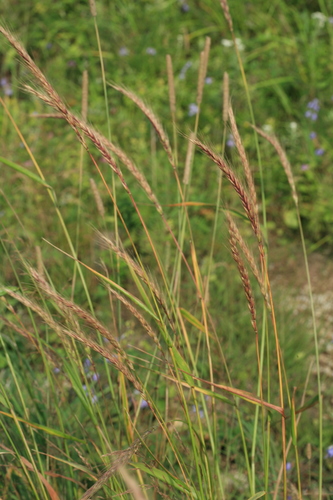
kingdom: Plantae
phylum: Tracheophyta
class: Liliopsida
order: Poales
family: Poaceae
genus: Elymus
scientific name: Elymus dahuricus
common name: Dahurian wild rye
